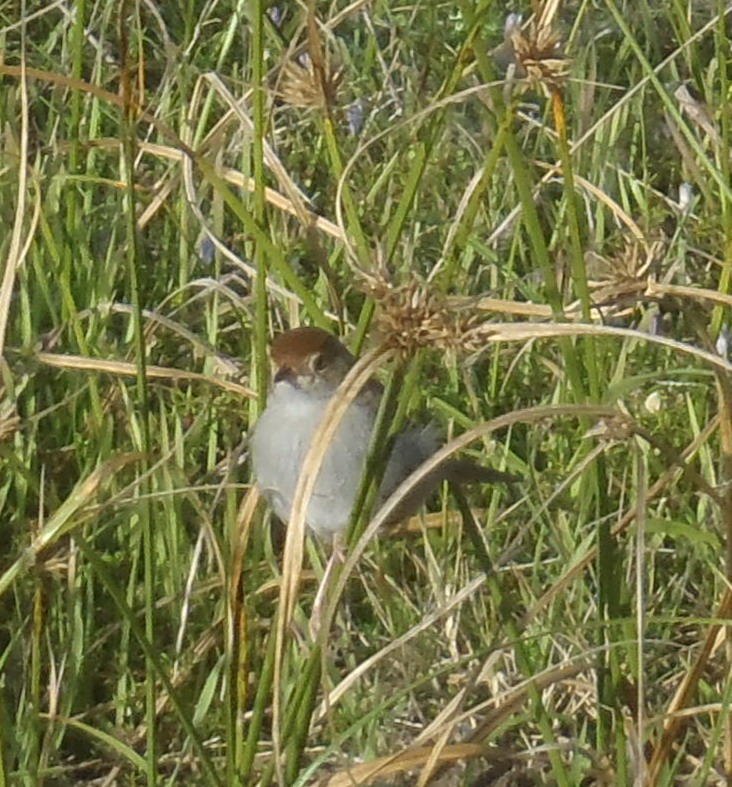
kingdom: Animalia
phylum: Chordata
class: Aves
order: Passeriformes
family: Cisticolidae
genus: Cisticola
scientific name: Cisticola fulvicapilla
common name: Neddicky
